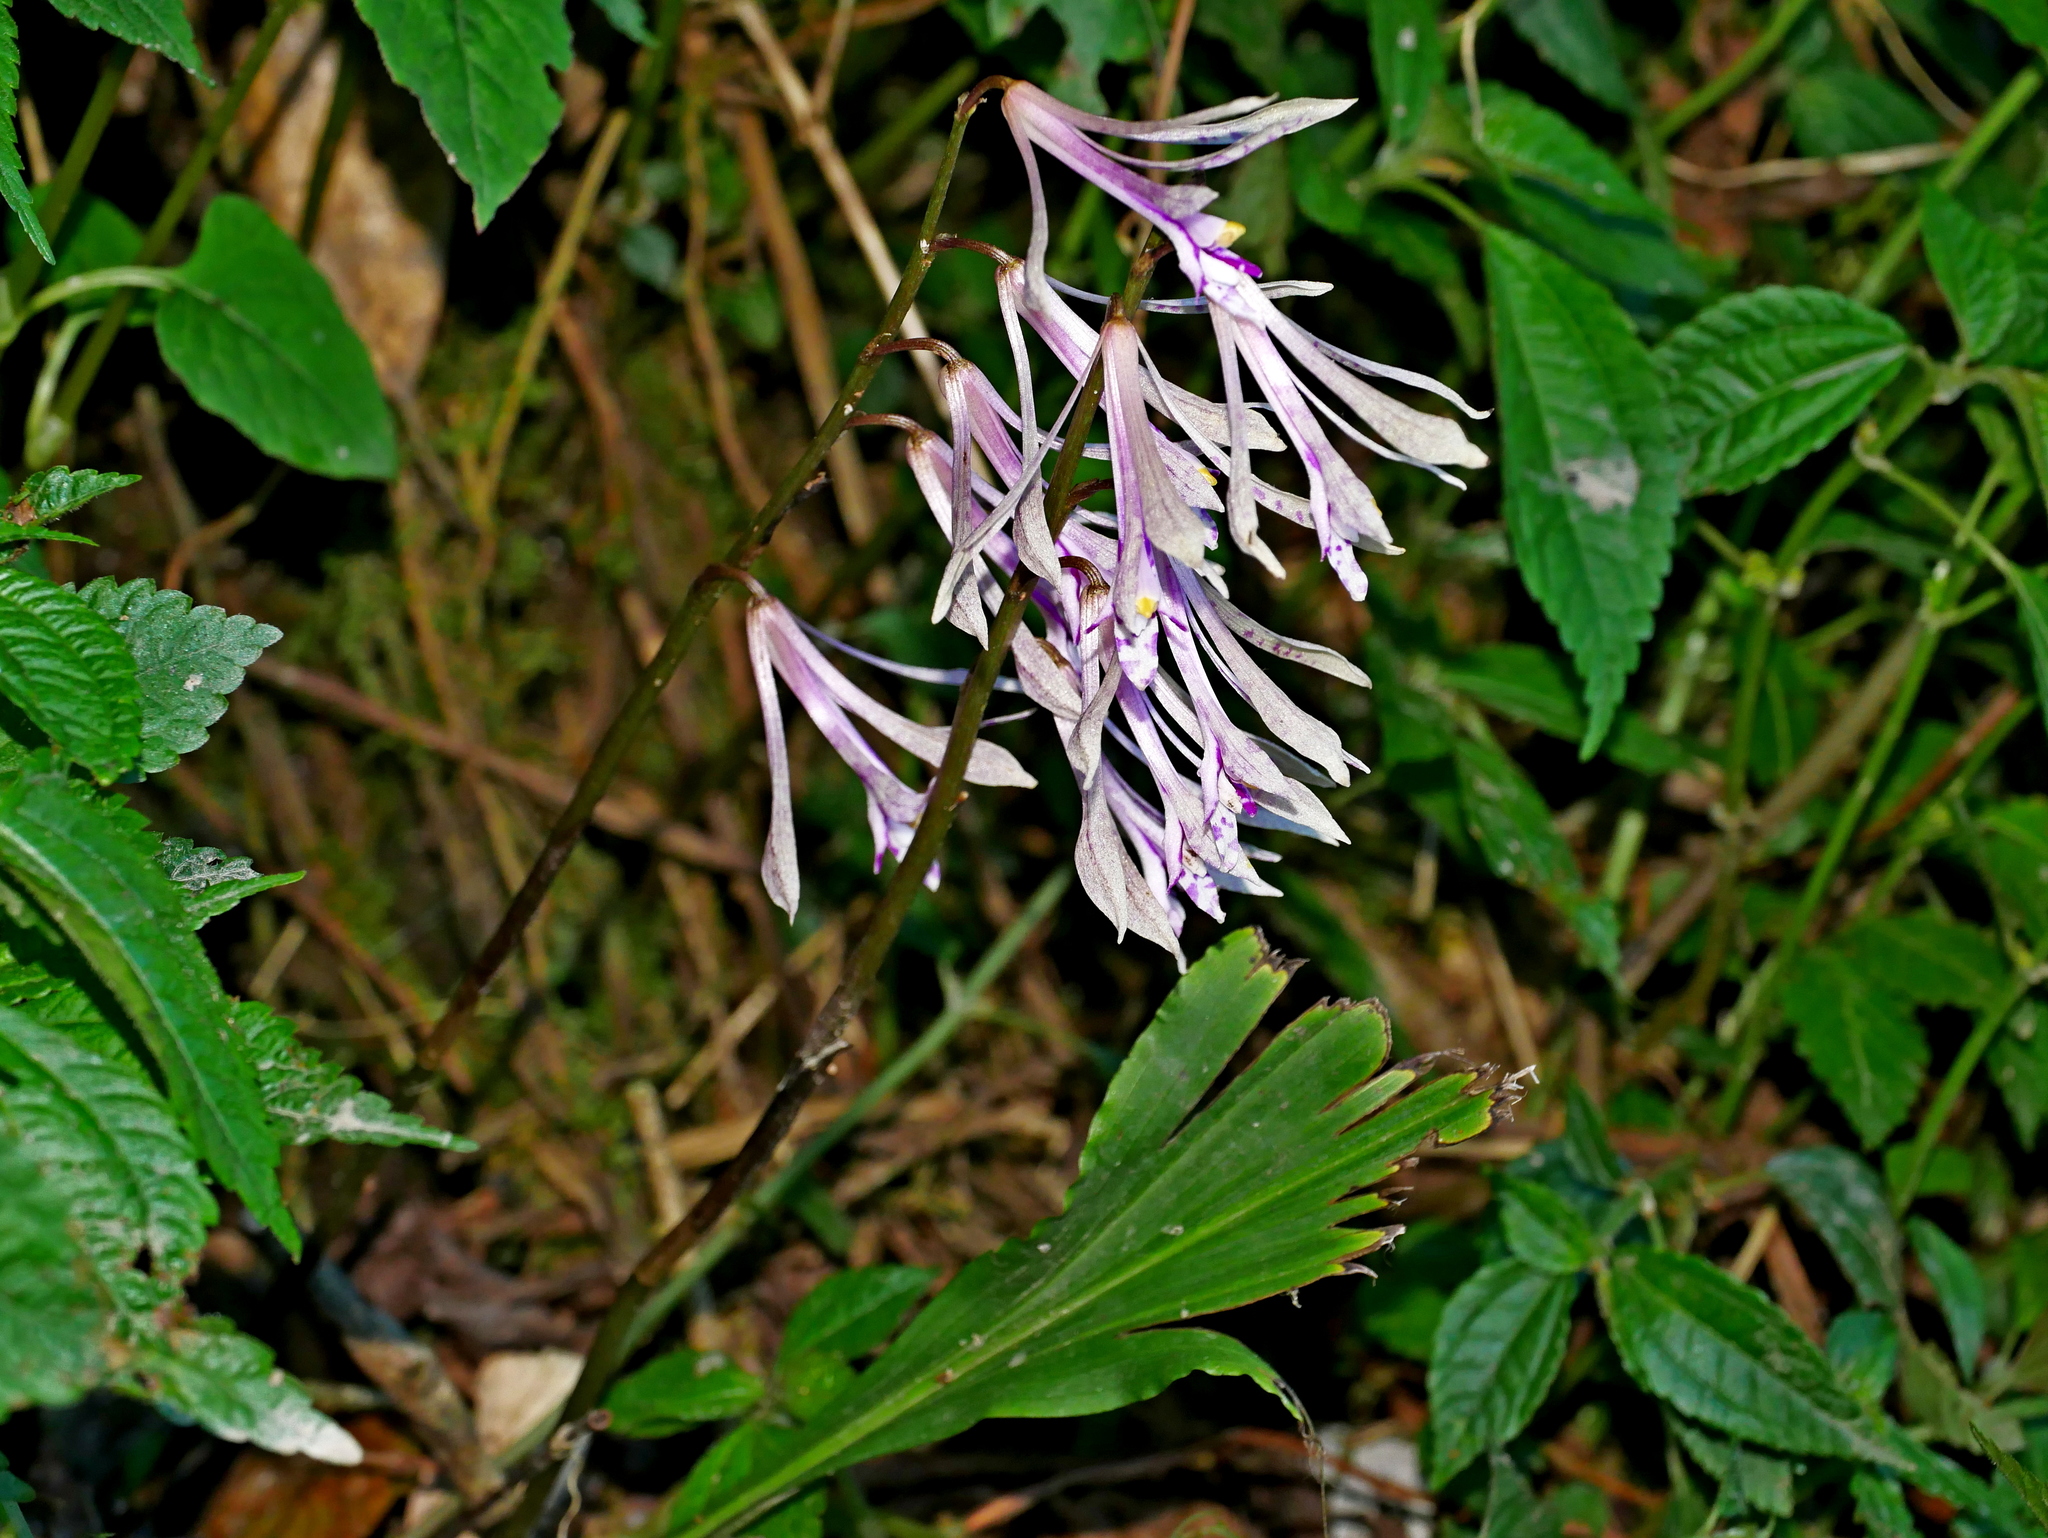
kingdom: Plantae
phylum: Tracheophyta
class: Liliopsida
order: Asparagales
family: Orchidaceae
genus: Cremastra
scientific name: Cremastra appendiculata
